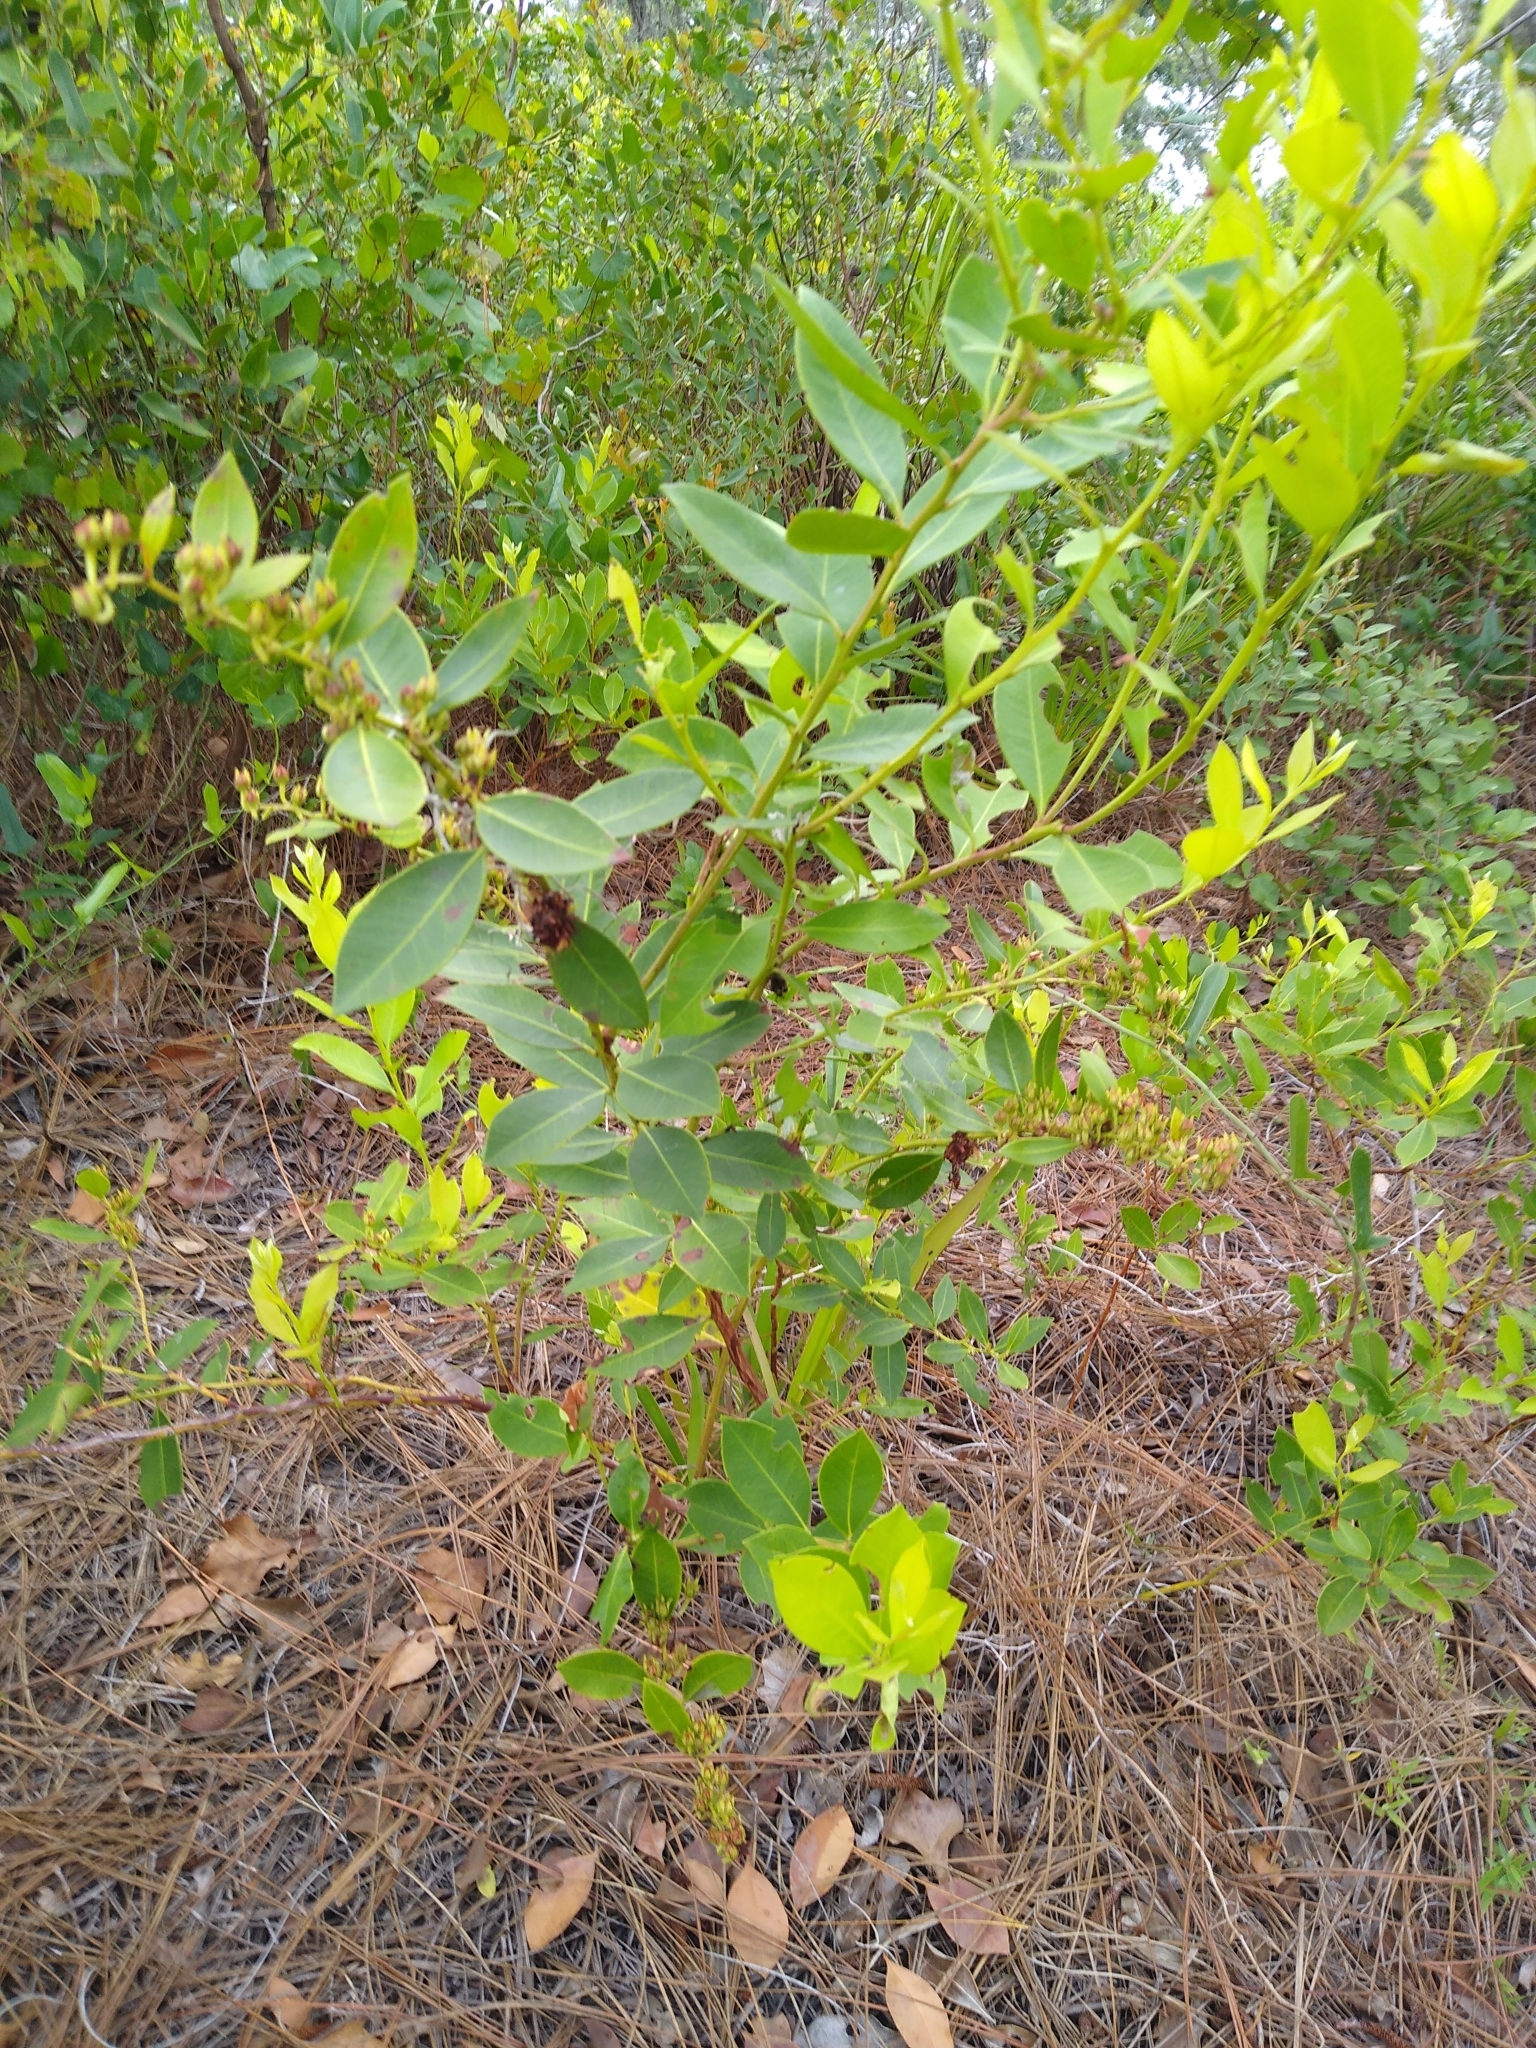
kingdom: Plantae
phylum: Tracheophyta
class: Magnoliopsida
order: Ericales
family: Ericaceae
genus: Lyonia
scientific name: Lyonia lucida
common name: Fetterbush
